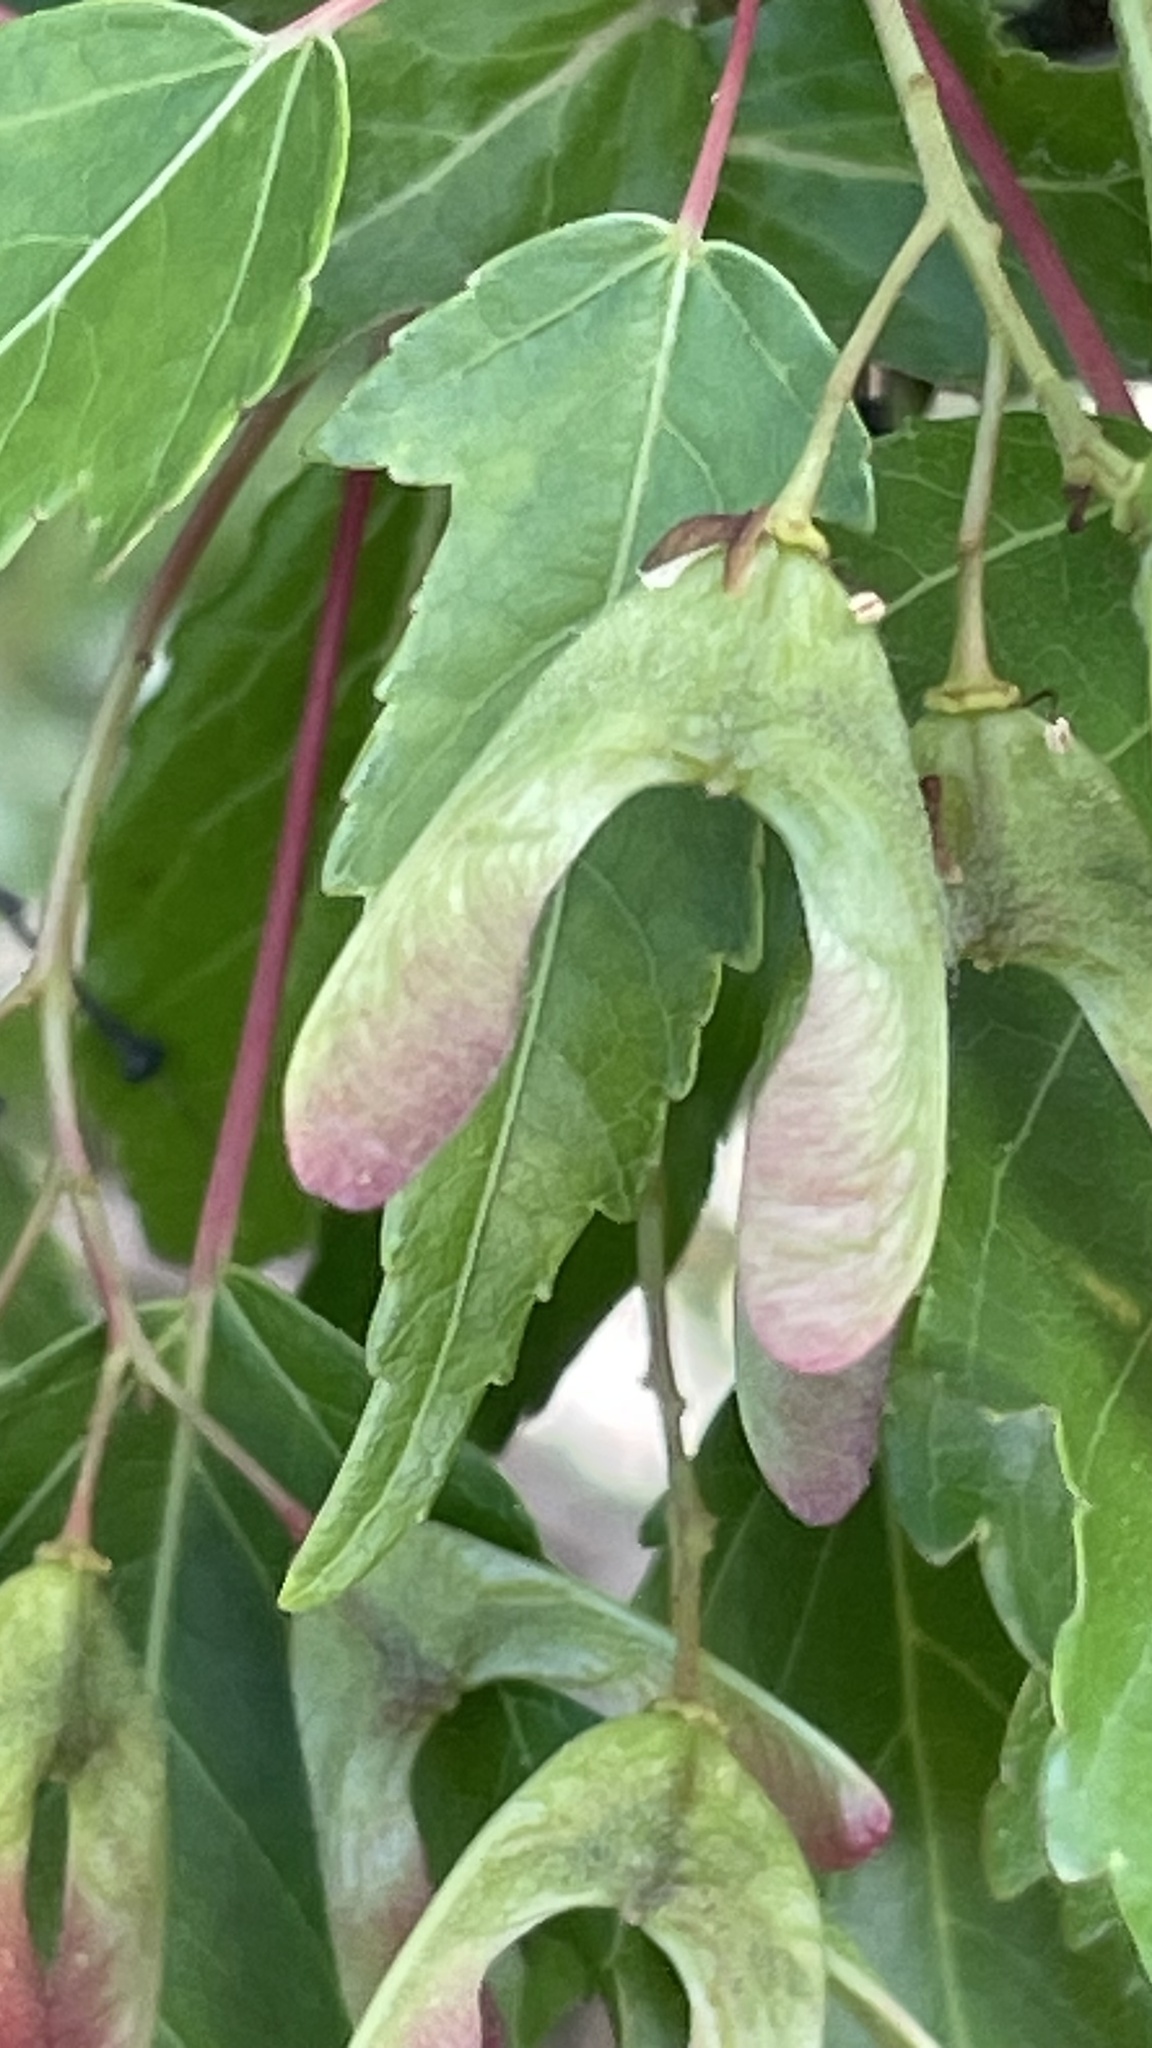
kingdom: Plantae
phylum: Tracheophyta
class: Magnoliopsida
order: Sapindales
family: Sapindaceae
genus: Acer
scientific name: Acer tataricum
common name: Tartar maple
